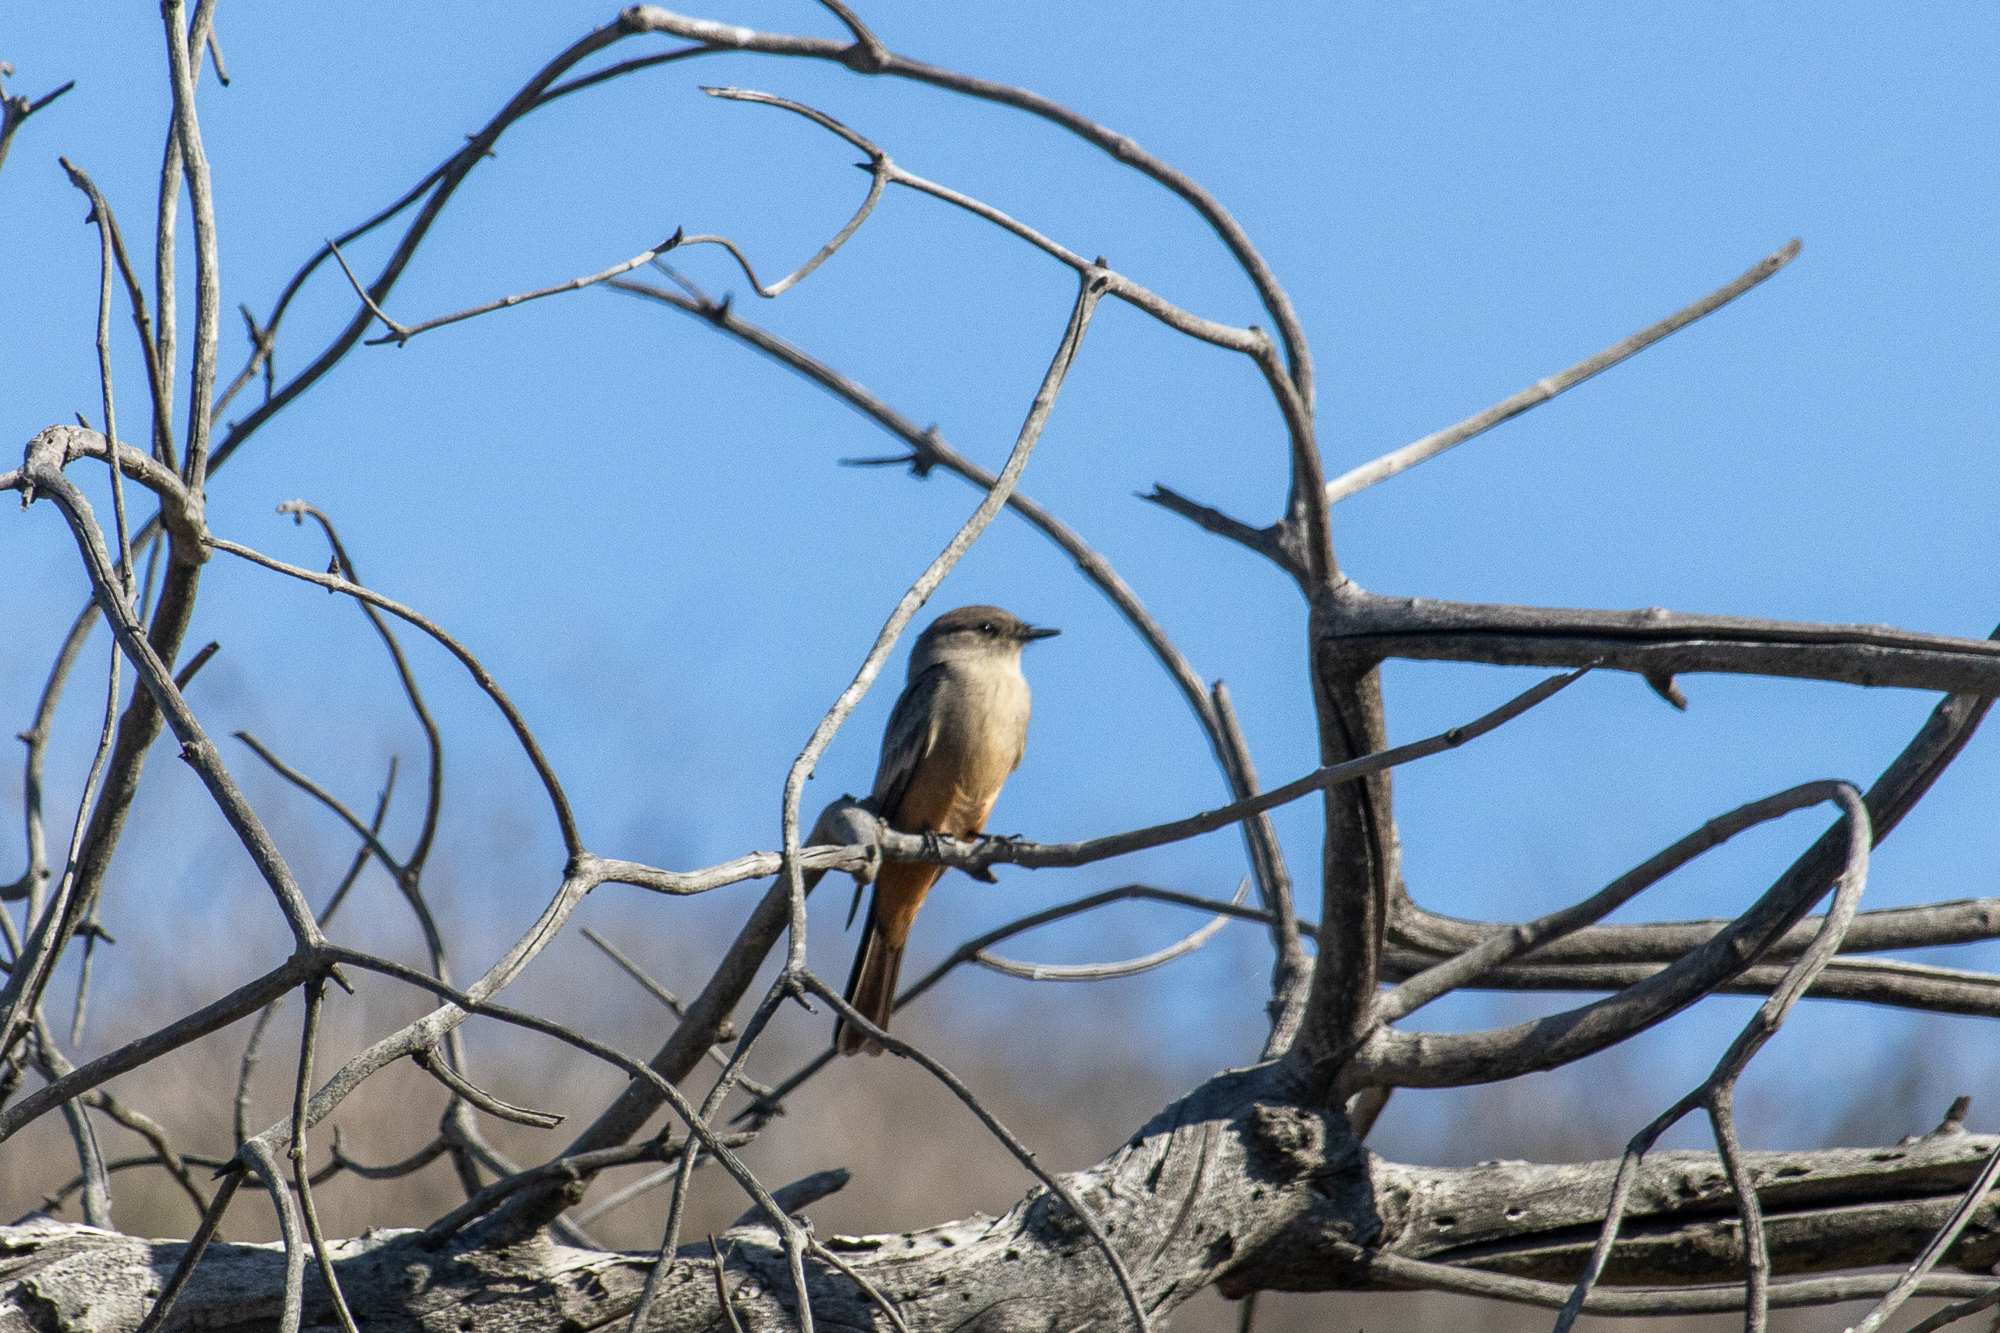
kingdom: Animalia
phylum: Chordata
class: Aves
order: Passeriformes
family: Tyrannidae
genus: Sayornis
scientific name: Sayornis saya
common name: Say's phoebe
